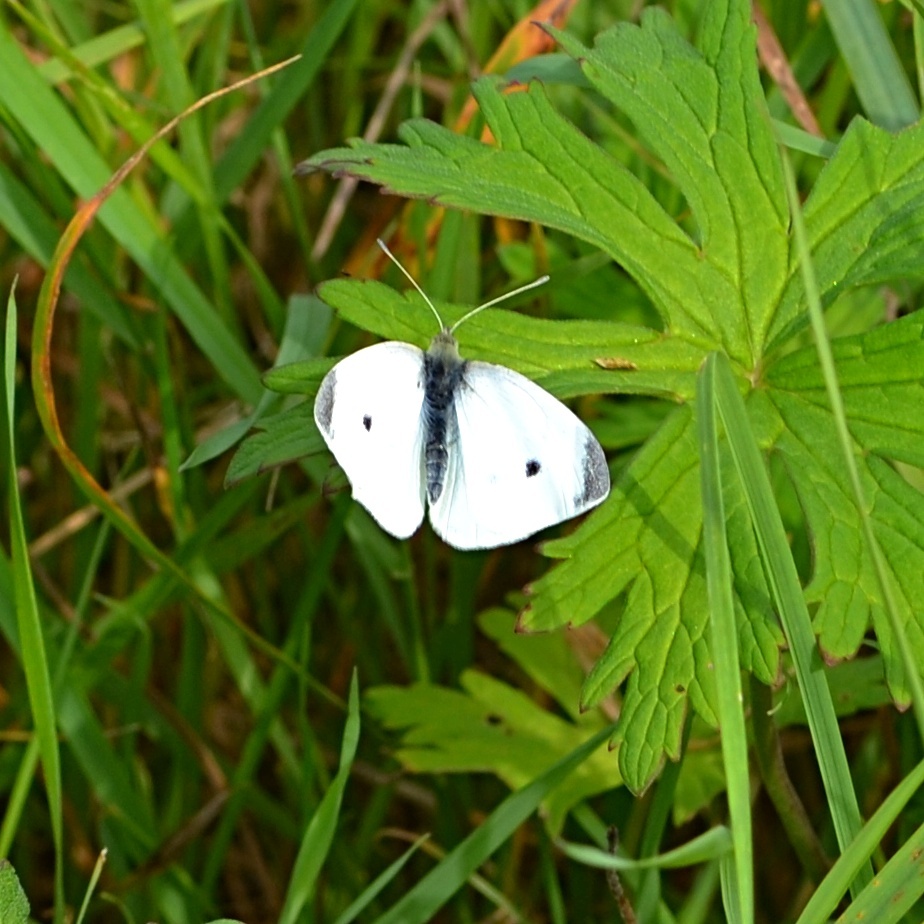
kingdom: Animalia
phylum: Arthropoda
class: Insecta
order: Lepidoptera
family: Pieridae
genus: Pieris
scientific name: Pieris rapae
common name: Small white
